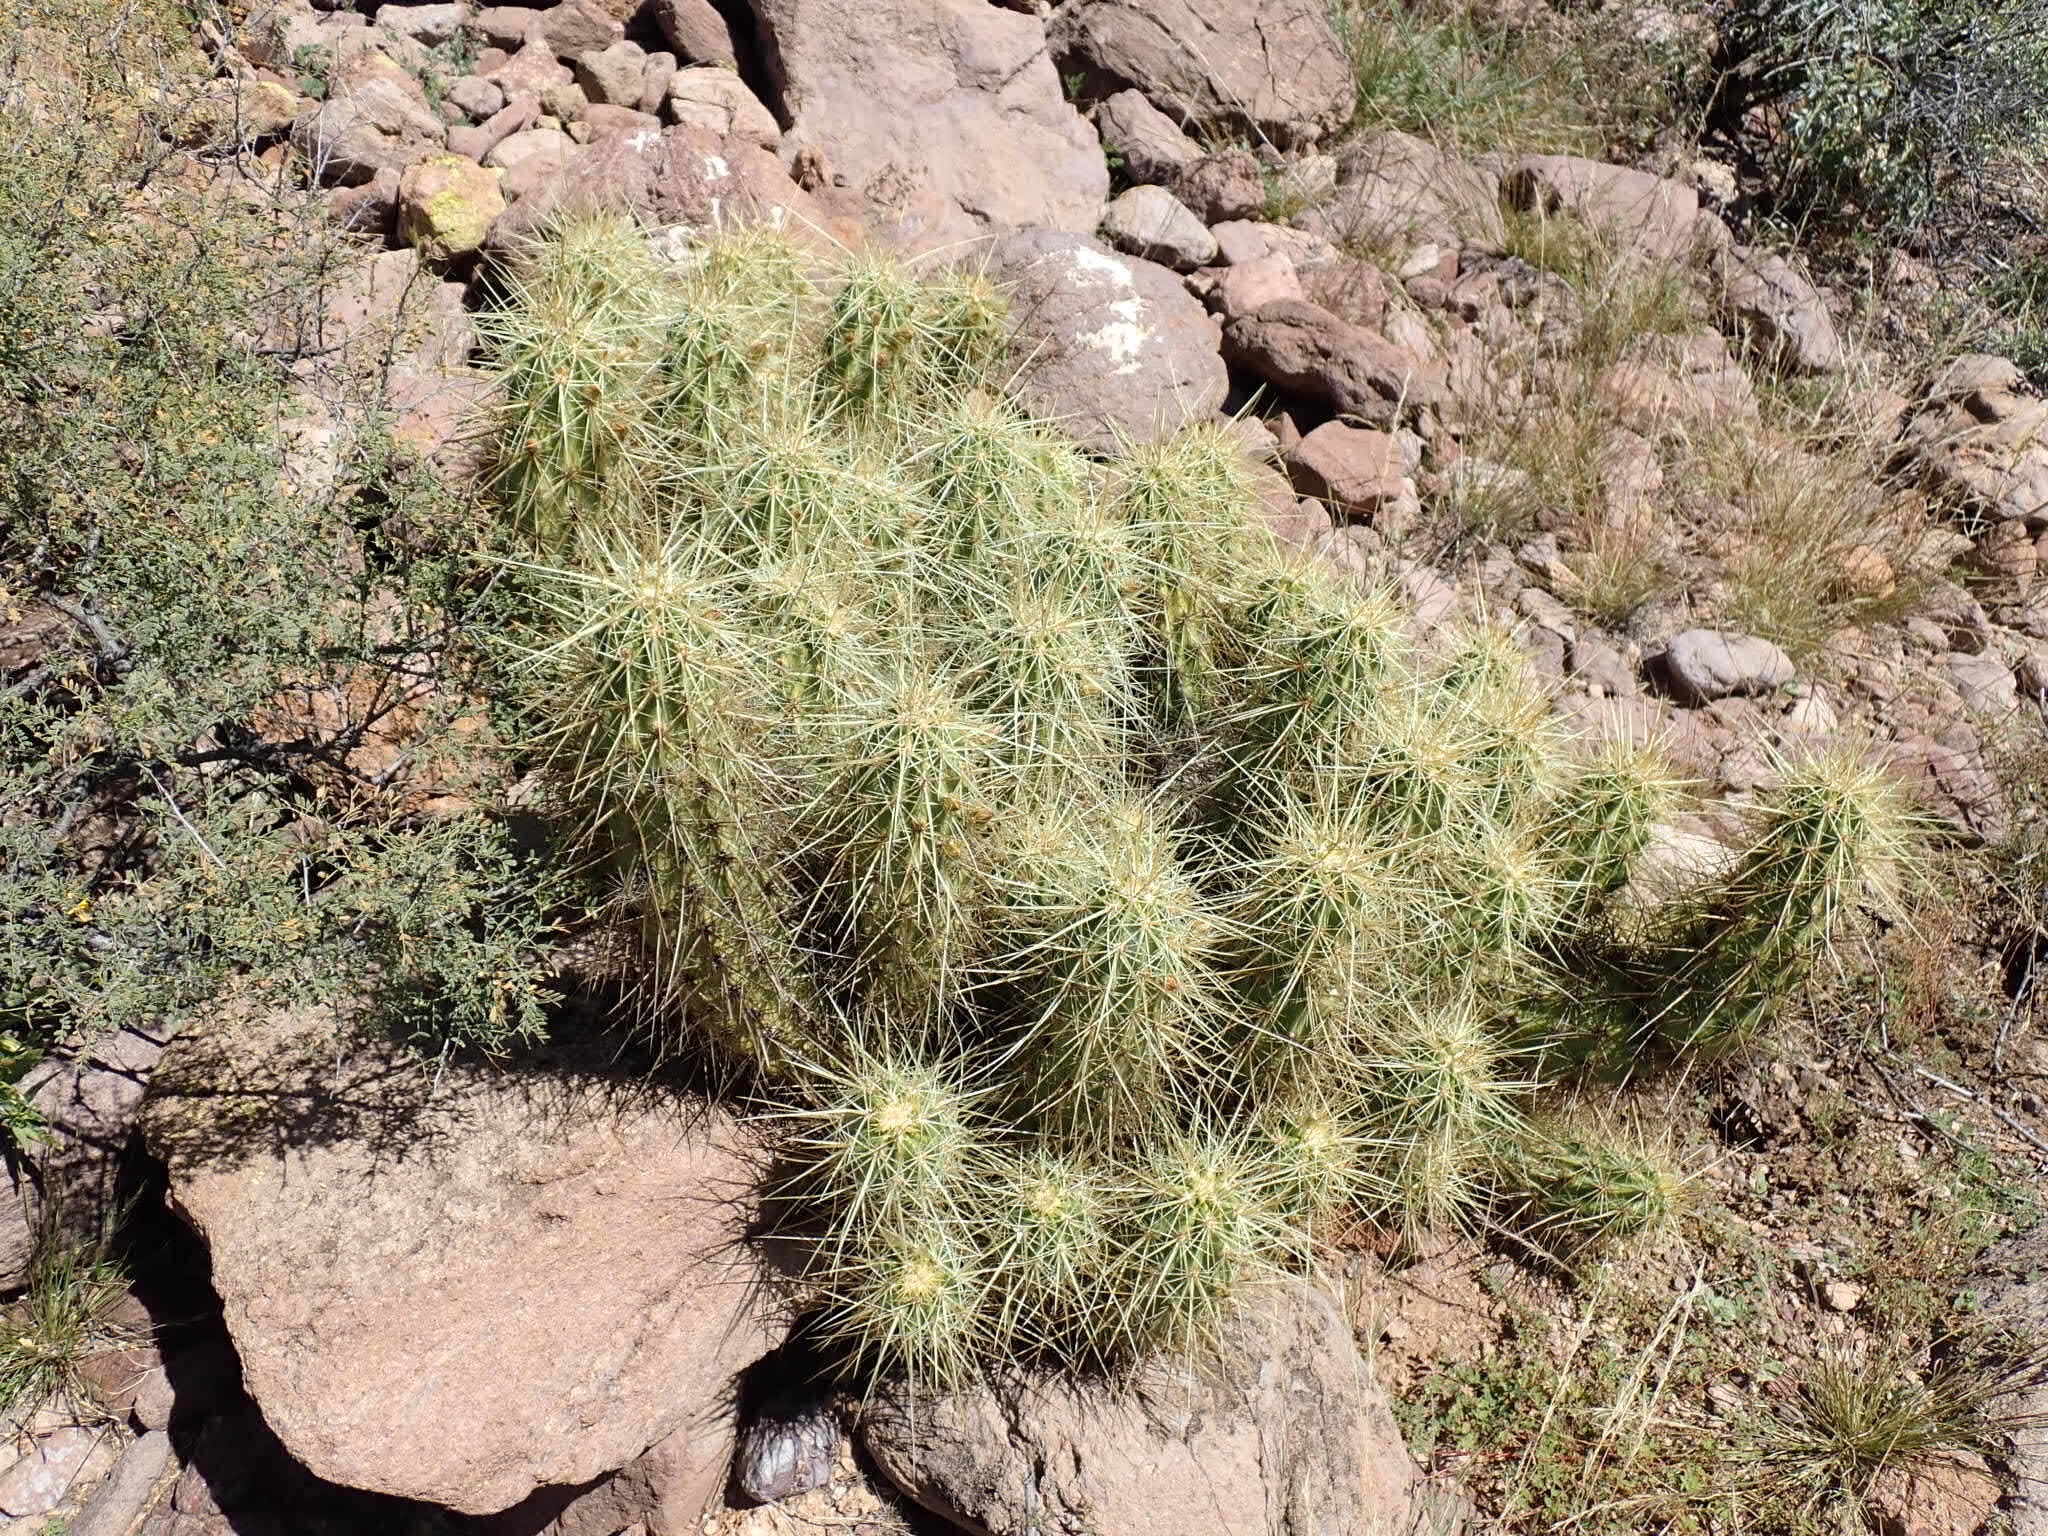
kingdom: Plantae
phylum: Tracheophyta
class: Magnoliopsida
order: Caryophyllales
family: Cactaceae
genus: Echinocereus
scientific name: Echinocereus nicholii
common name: Nichol's hedgehog cactus
